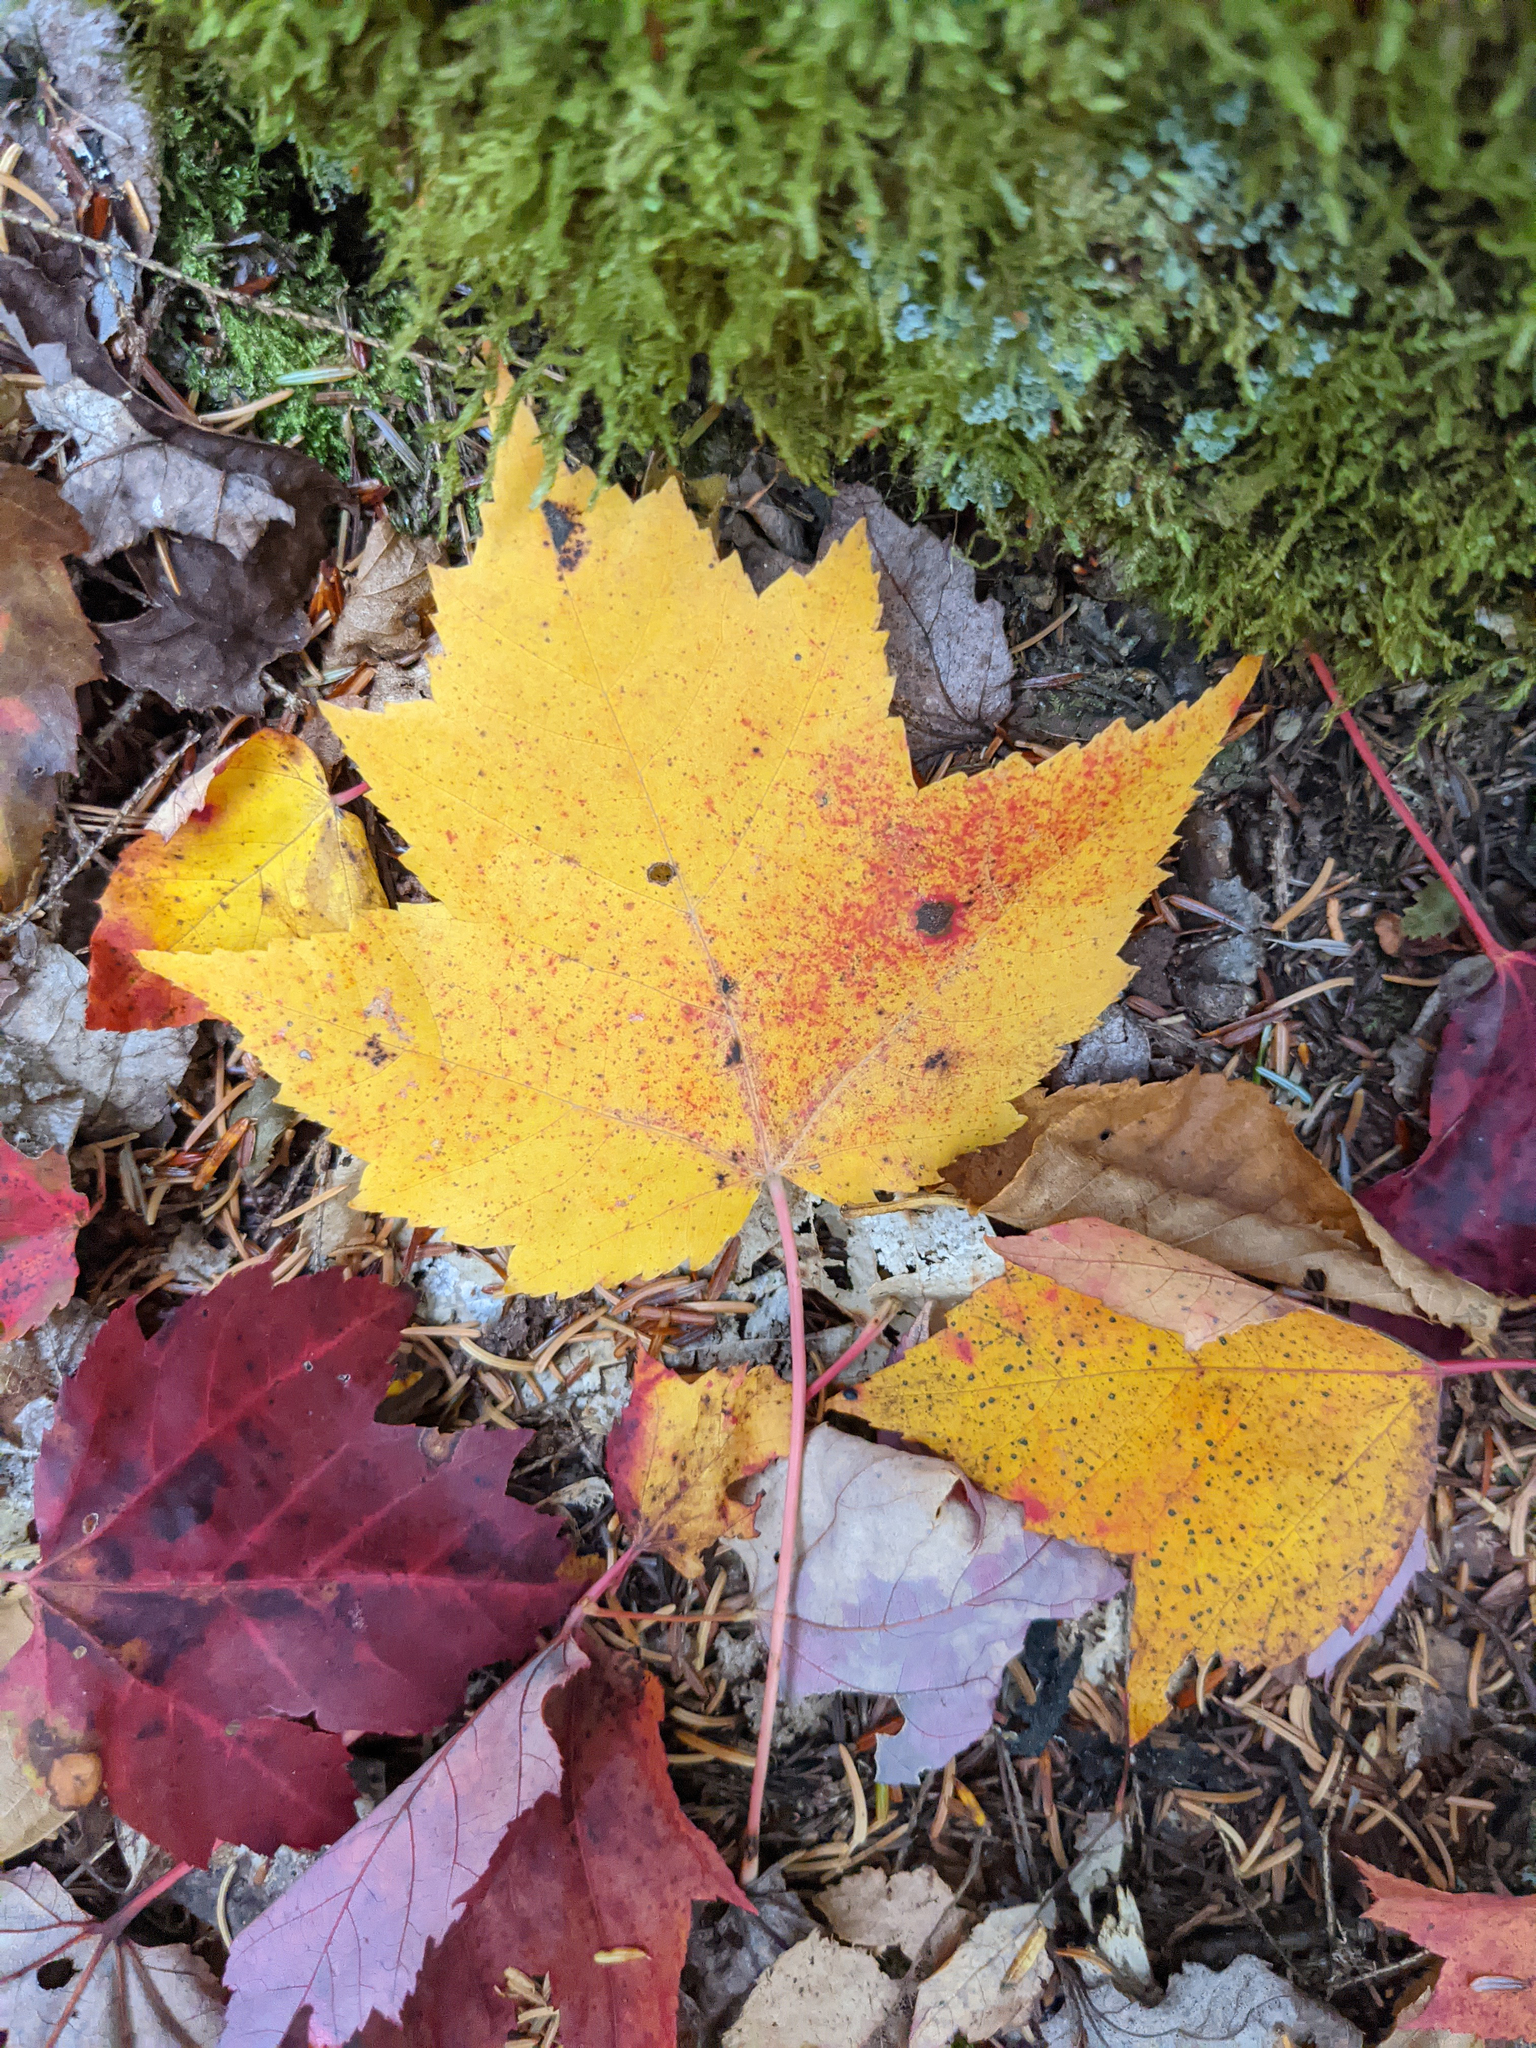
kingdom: Plantae
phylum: Tracheophyta
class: Magnoliopsida
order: Sapindales
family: Sapindaceae
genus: Acer
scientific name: Acer rubrum
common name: Red maple
